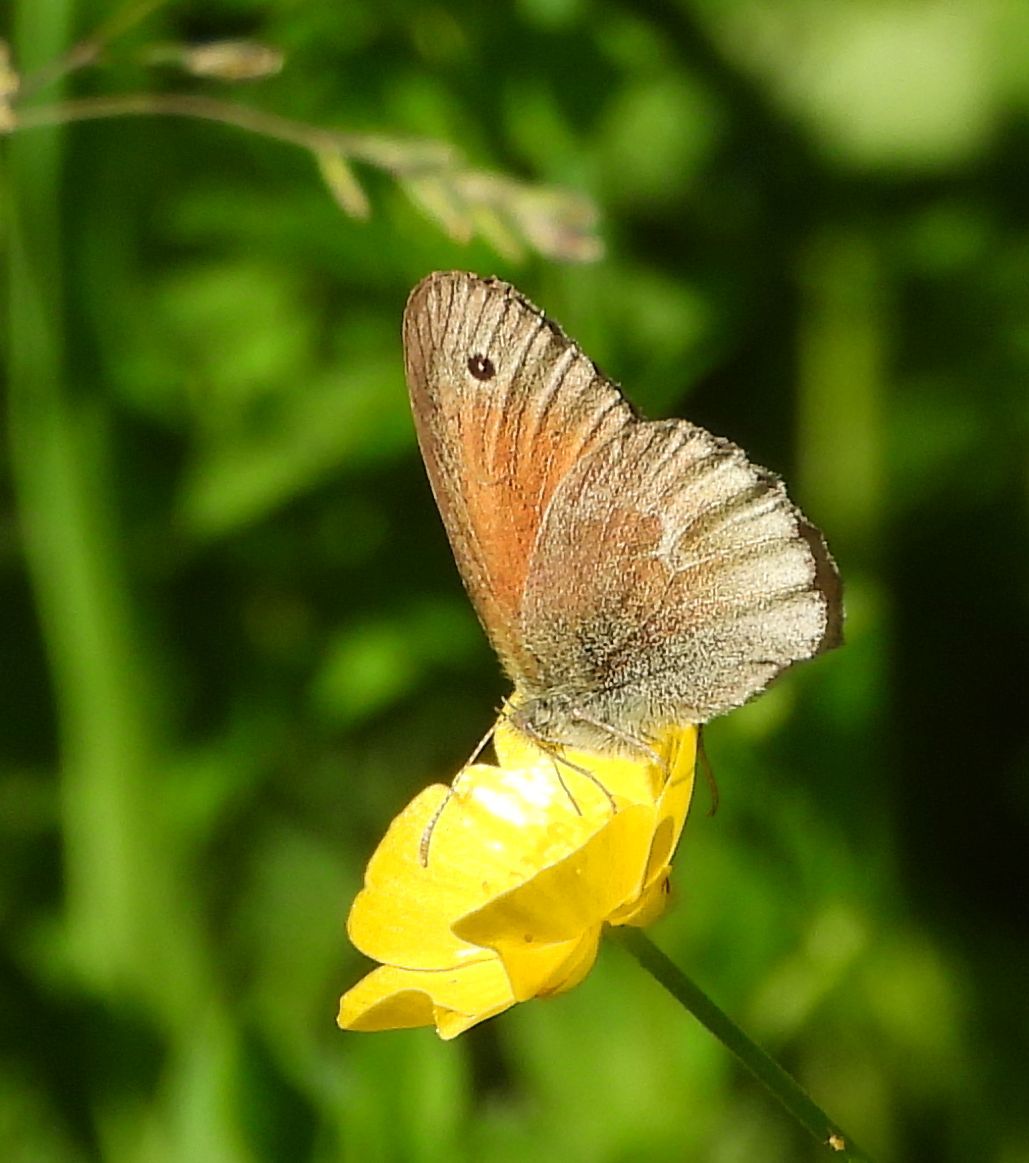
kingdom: Animalia
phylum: Arthropoda
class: Insecta
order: Lepidoptera
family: Nymphalidae
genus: Coenonympha
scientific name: Coenonympha california
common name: Common ringlet
